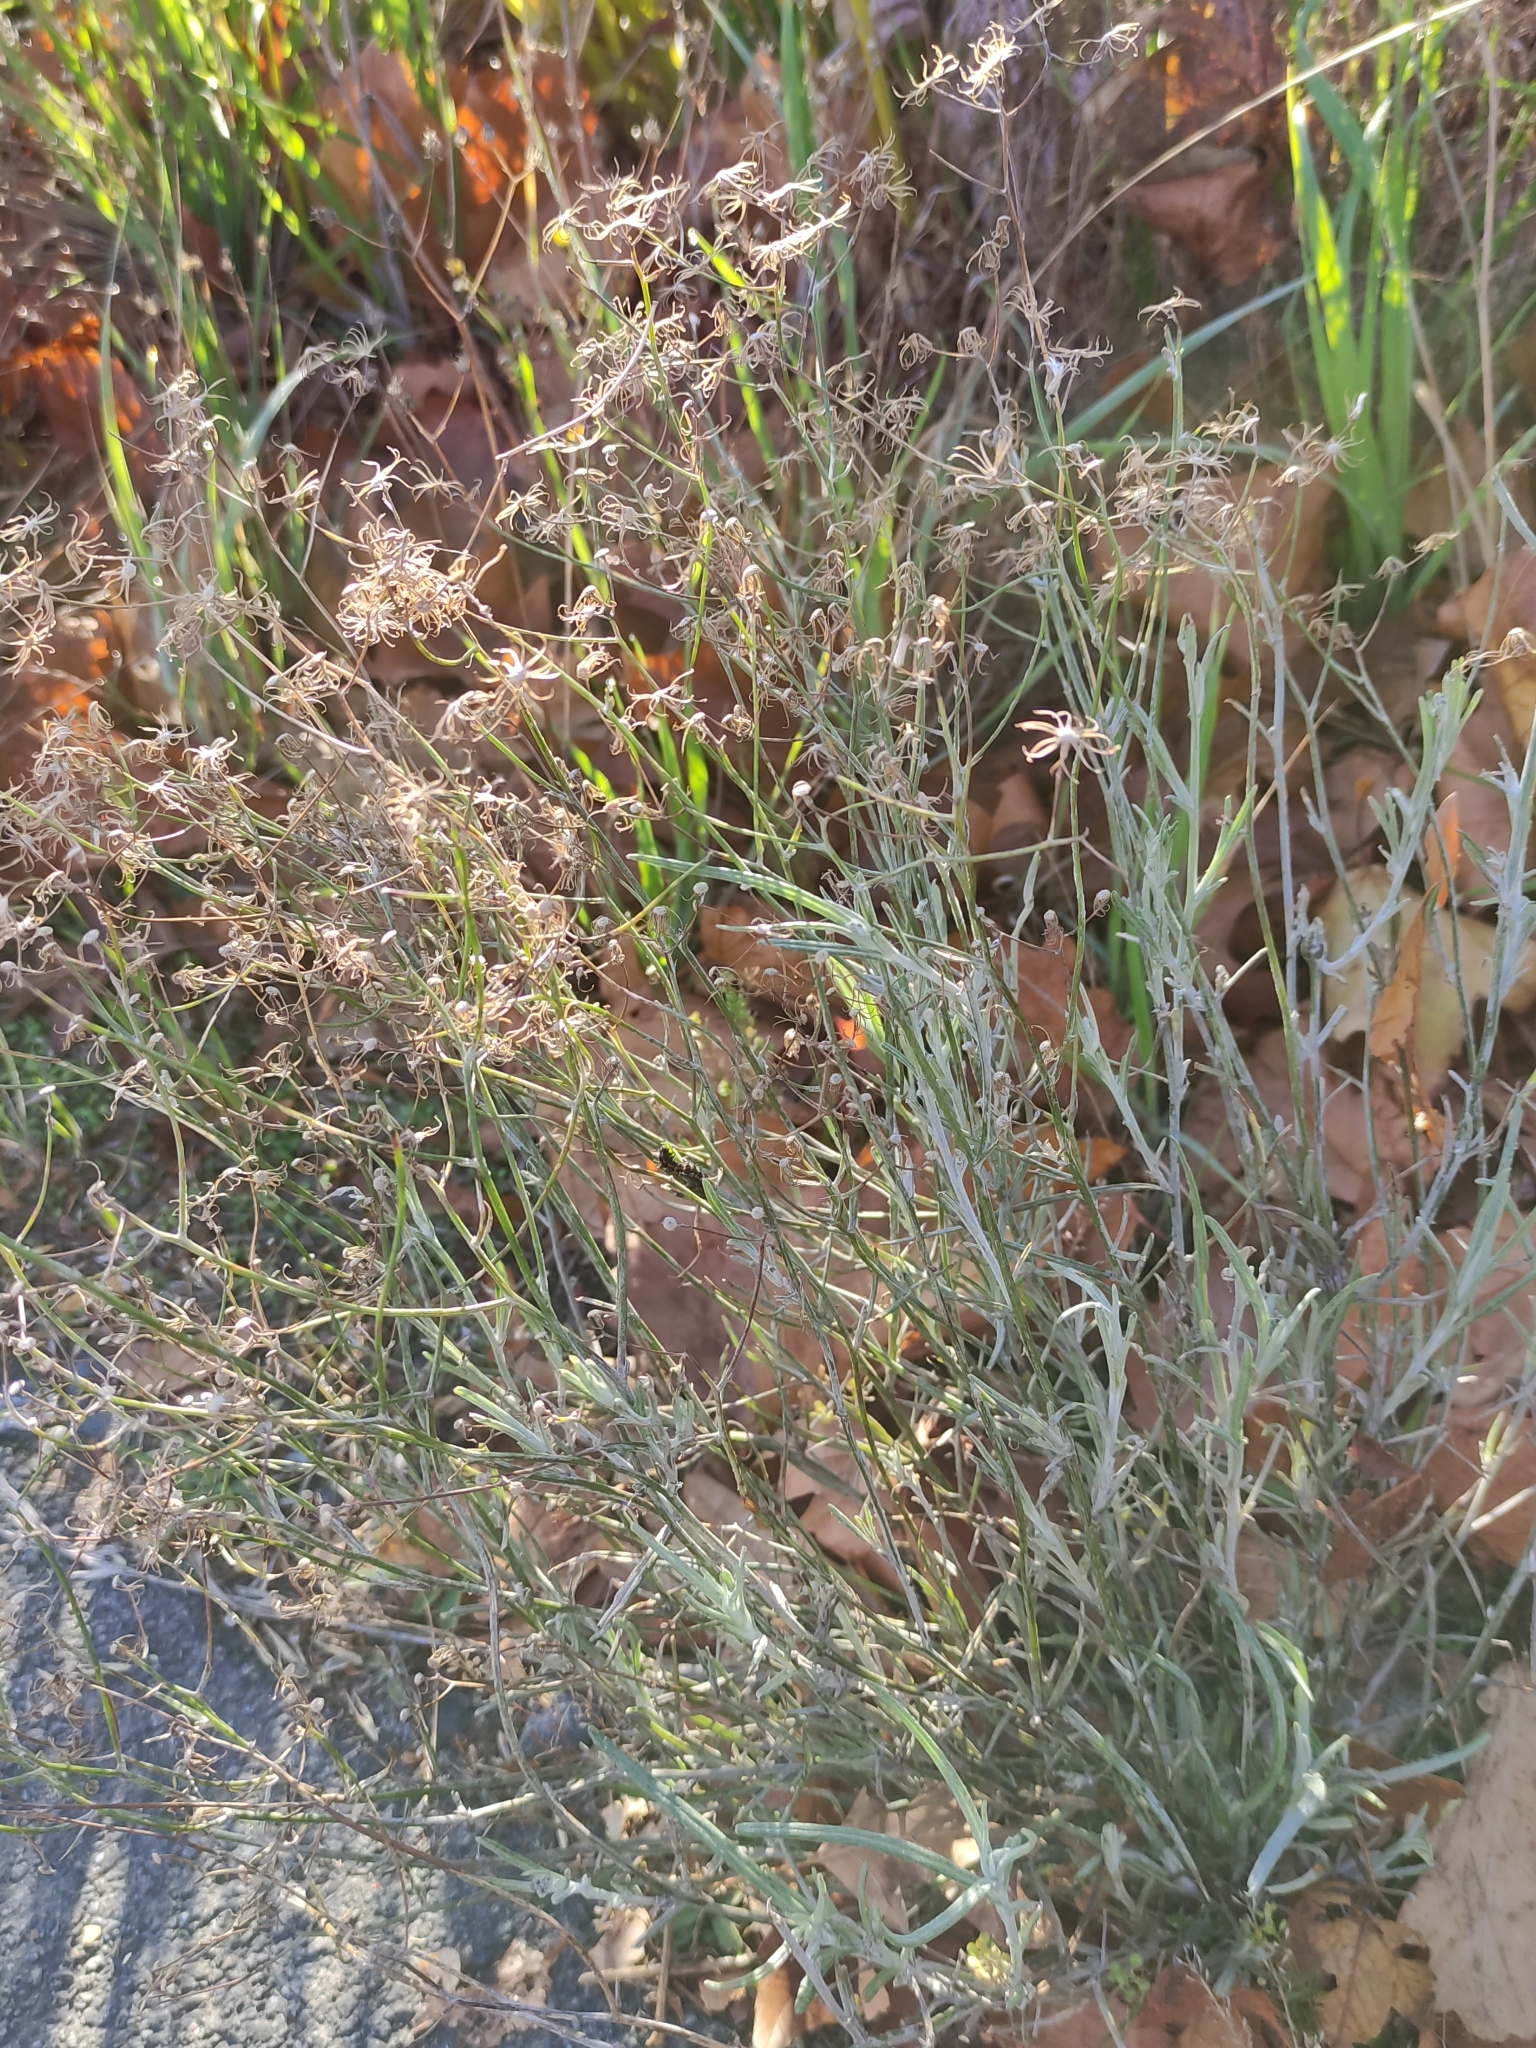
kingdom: Plantae
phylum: Tracheophyta
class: Magnoliopsida
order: Asterales
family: Asteraceae
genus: Senecio
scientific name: Senecio quadridentatus
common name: Cotton fireweed
